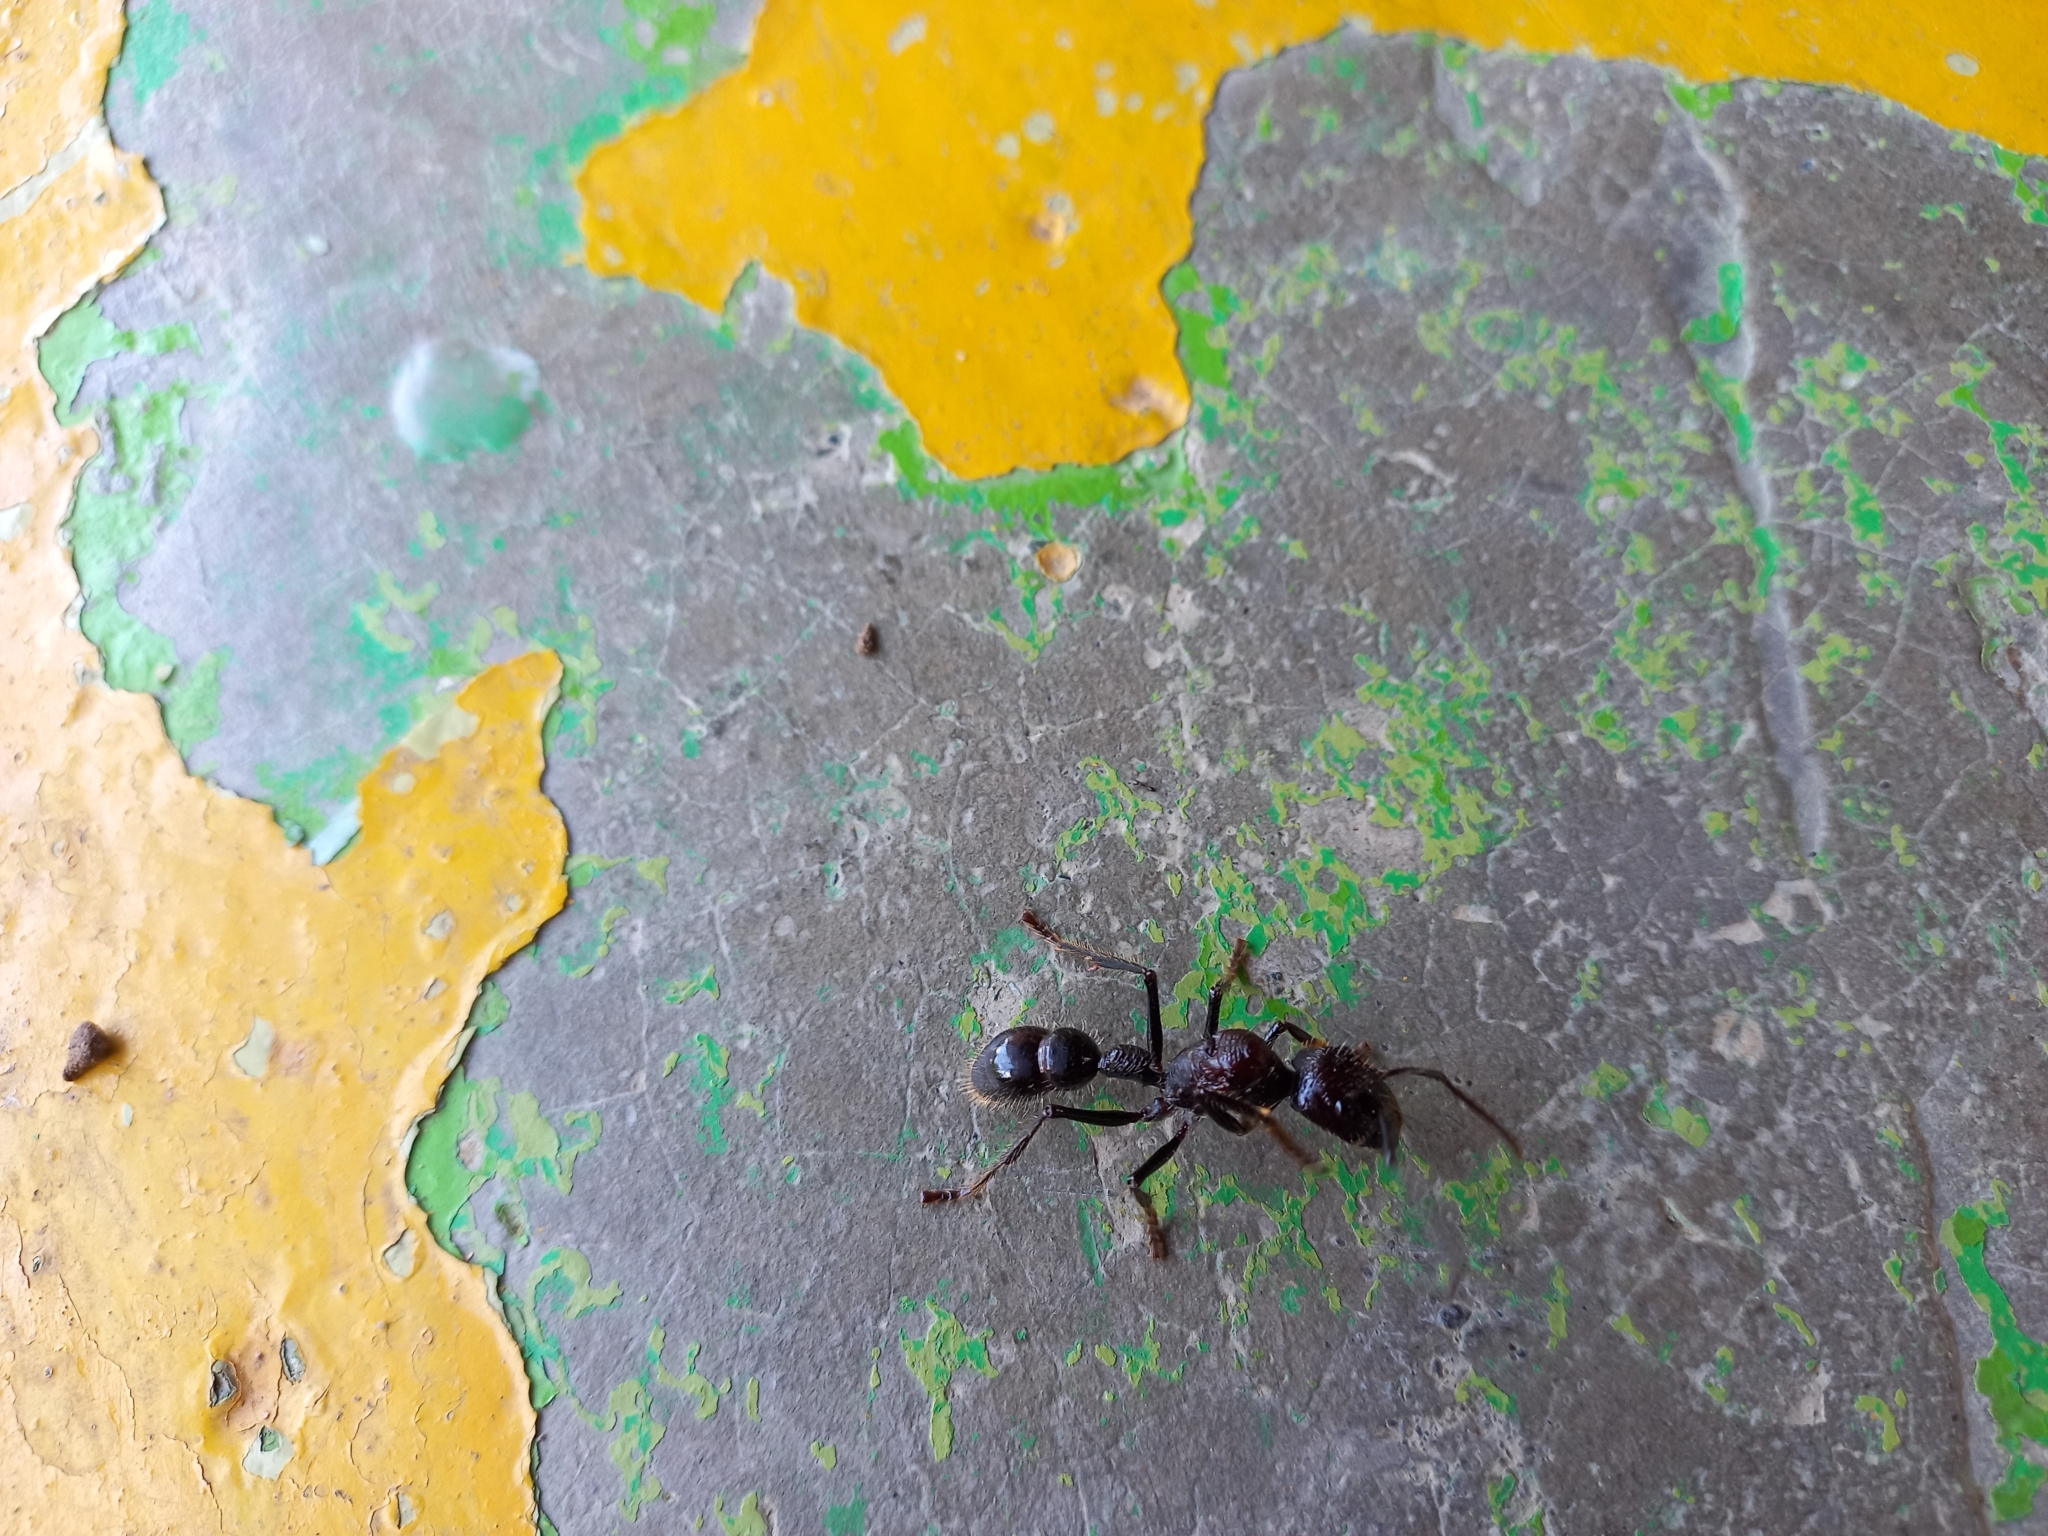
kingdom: Animalia
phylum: Arthropoda
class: Insecta
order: Hymenoptera
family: Formicidae
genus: Paraponera
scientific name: Paraponera clavata
